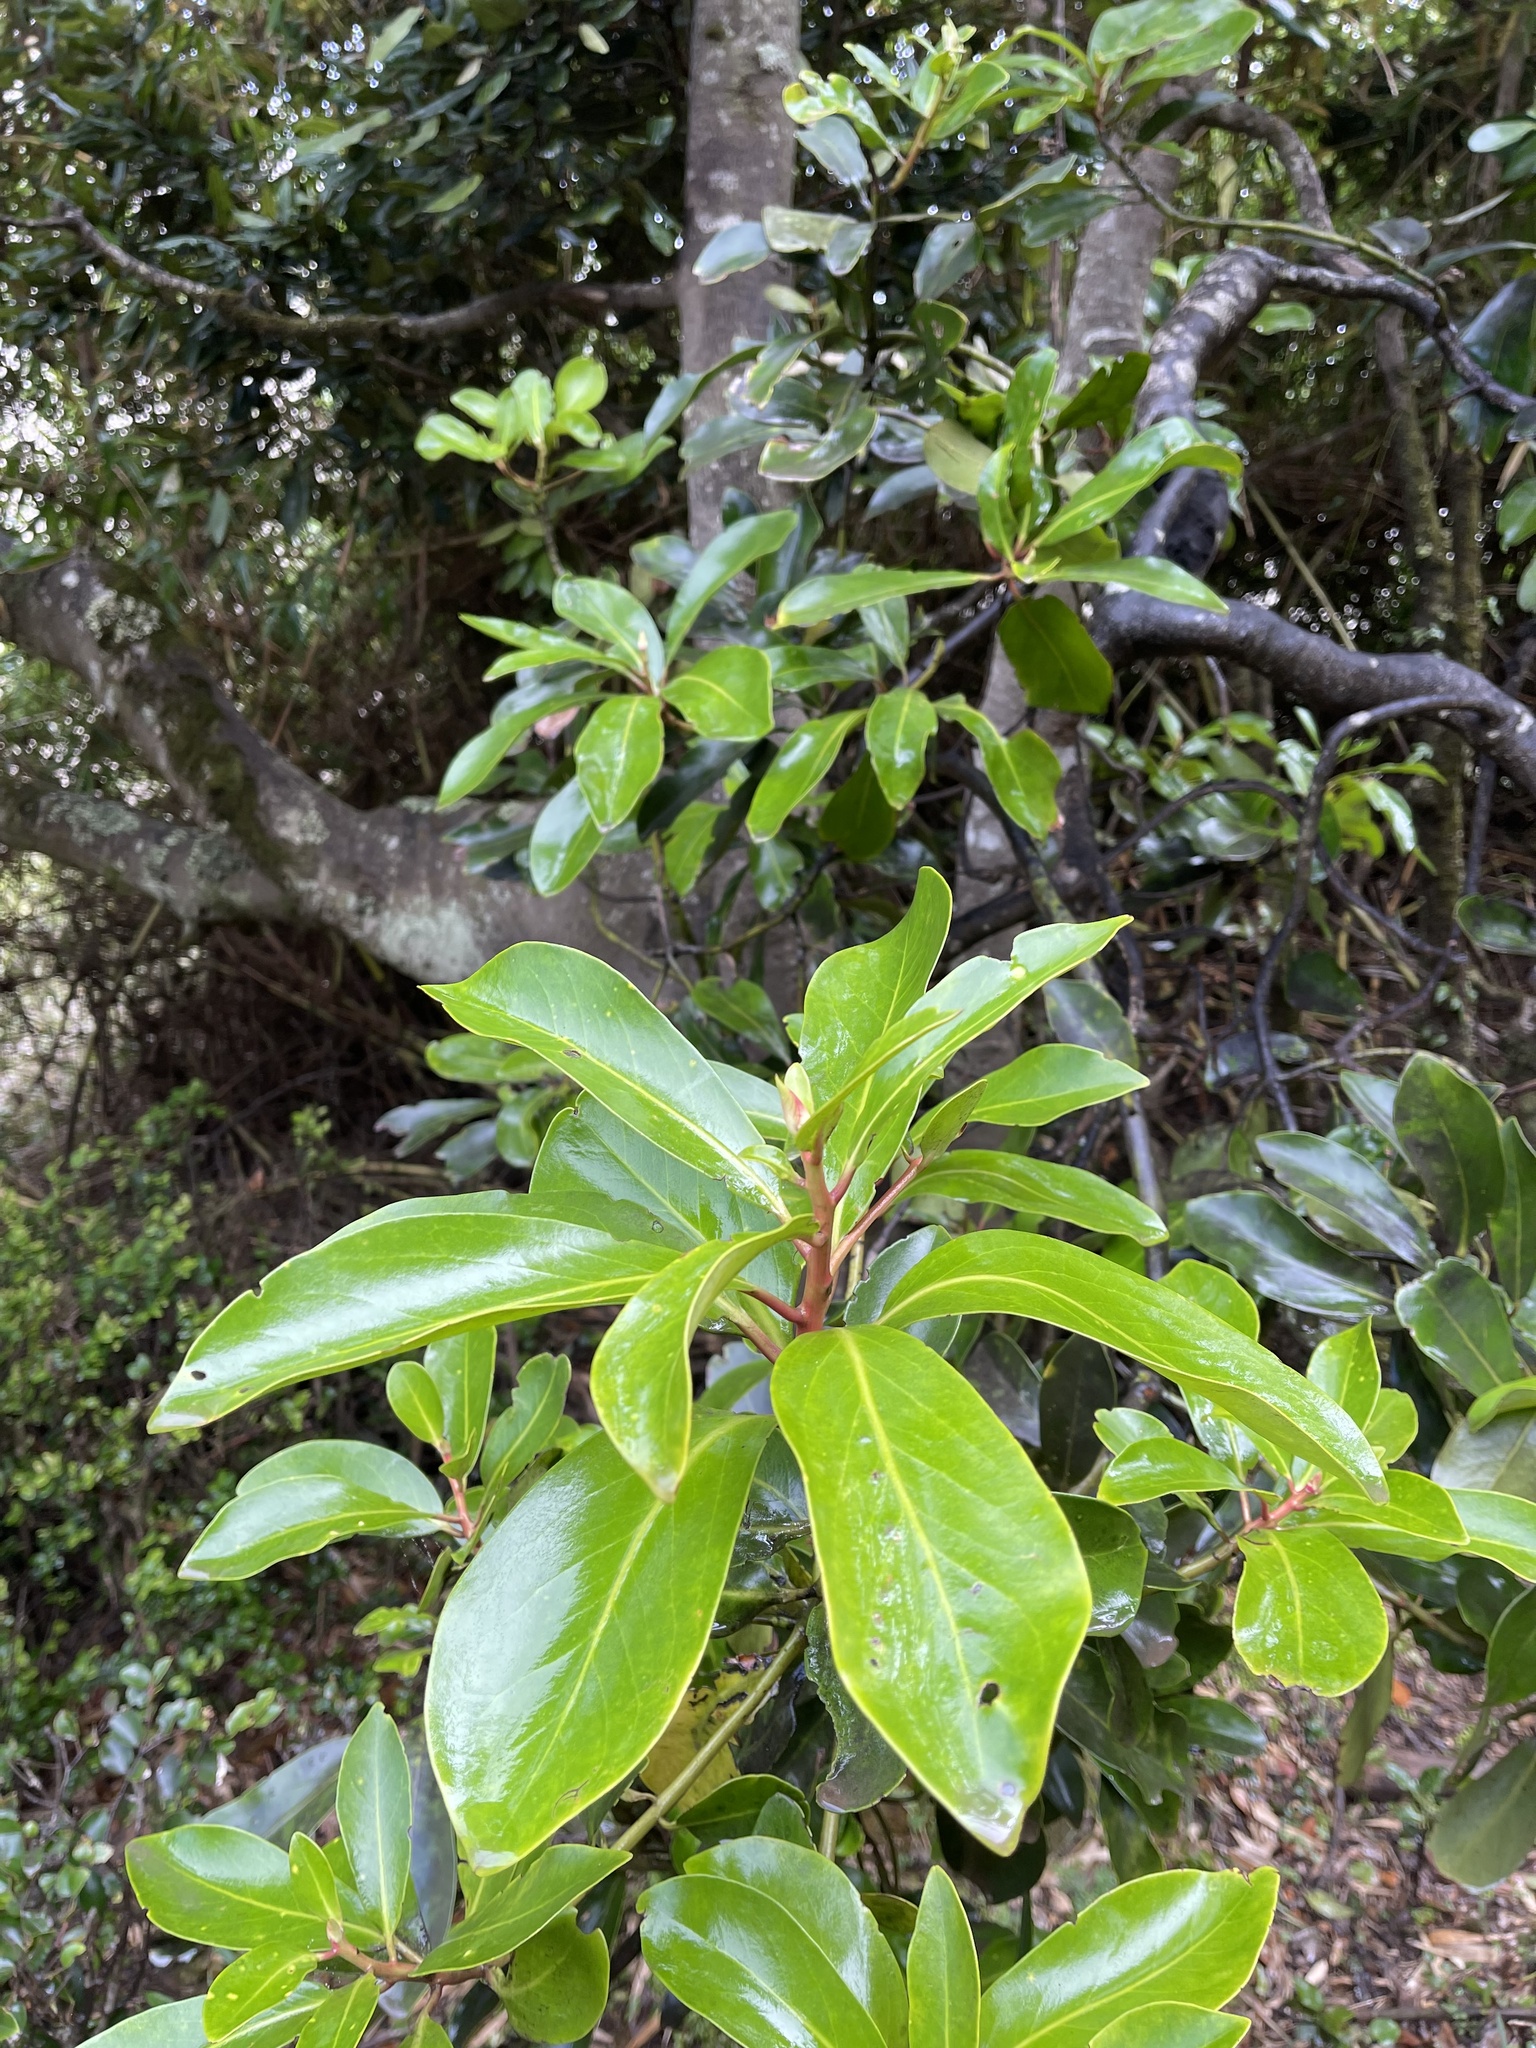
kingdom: Plantae
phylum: Tracheophyta
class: Magnoliopsida
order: Canellales
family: Winteraceae
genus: Drimys
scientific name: Drimys winteri
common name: Winter's-bark
